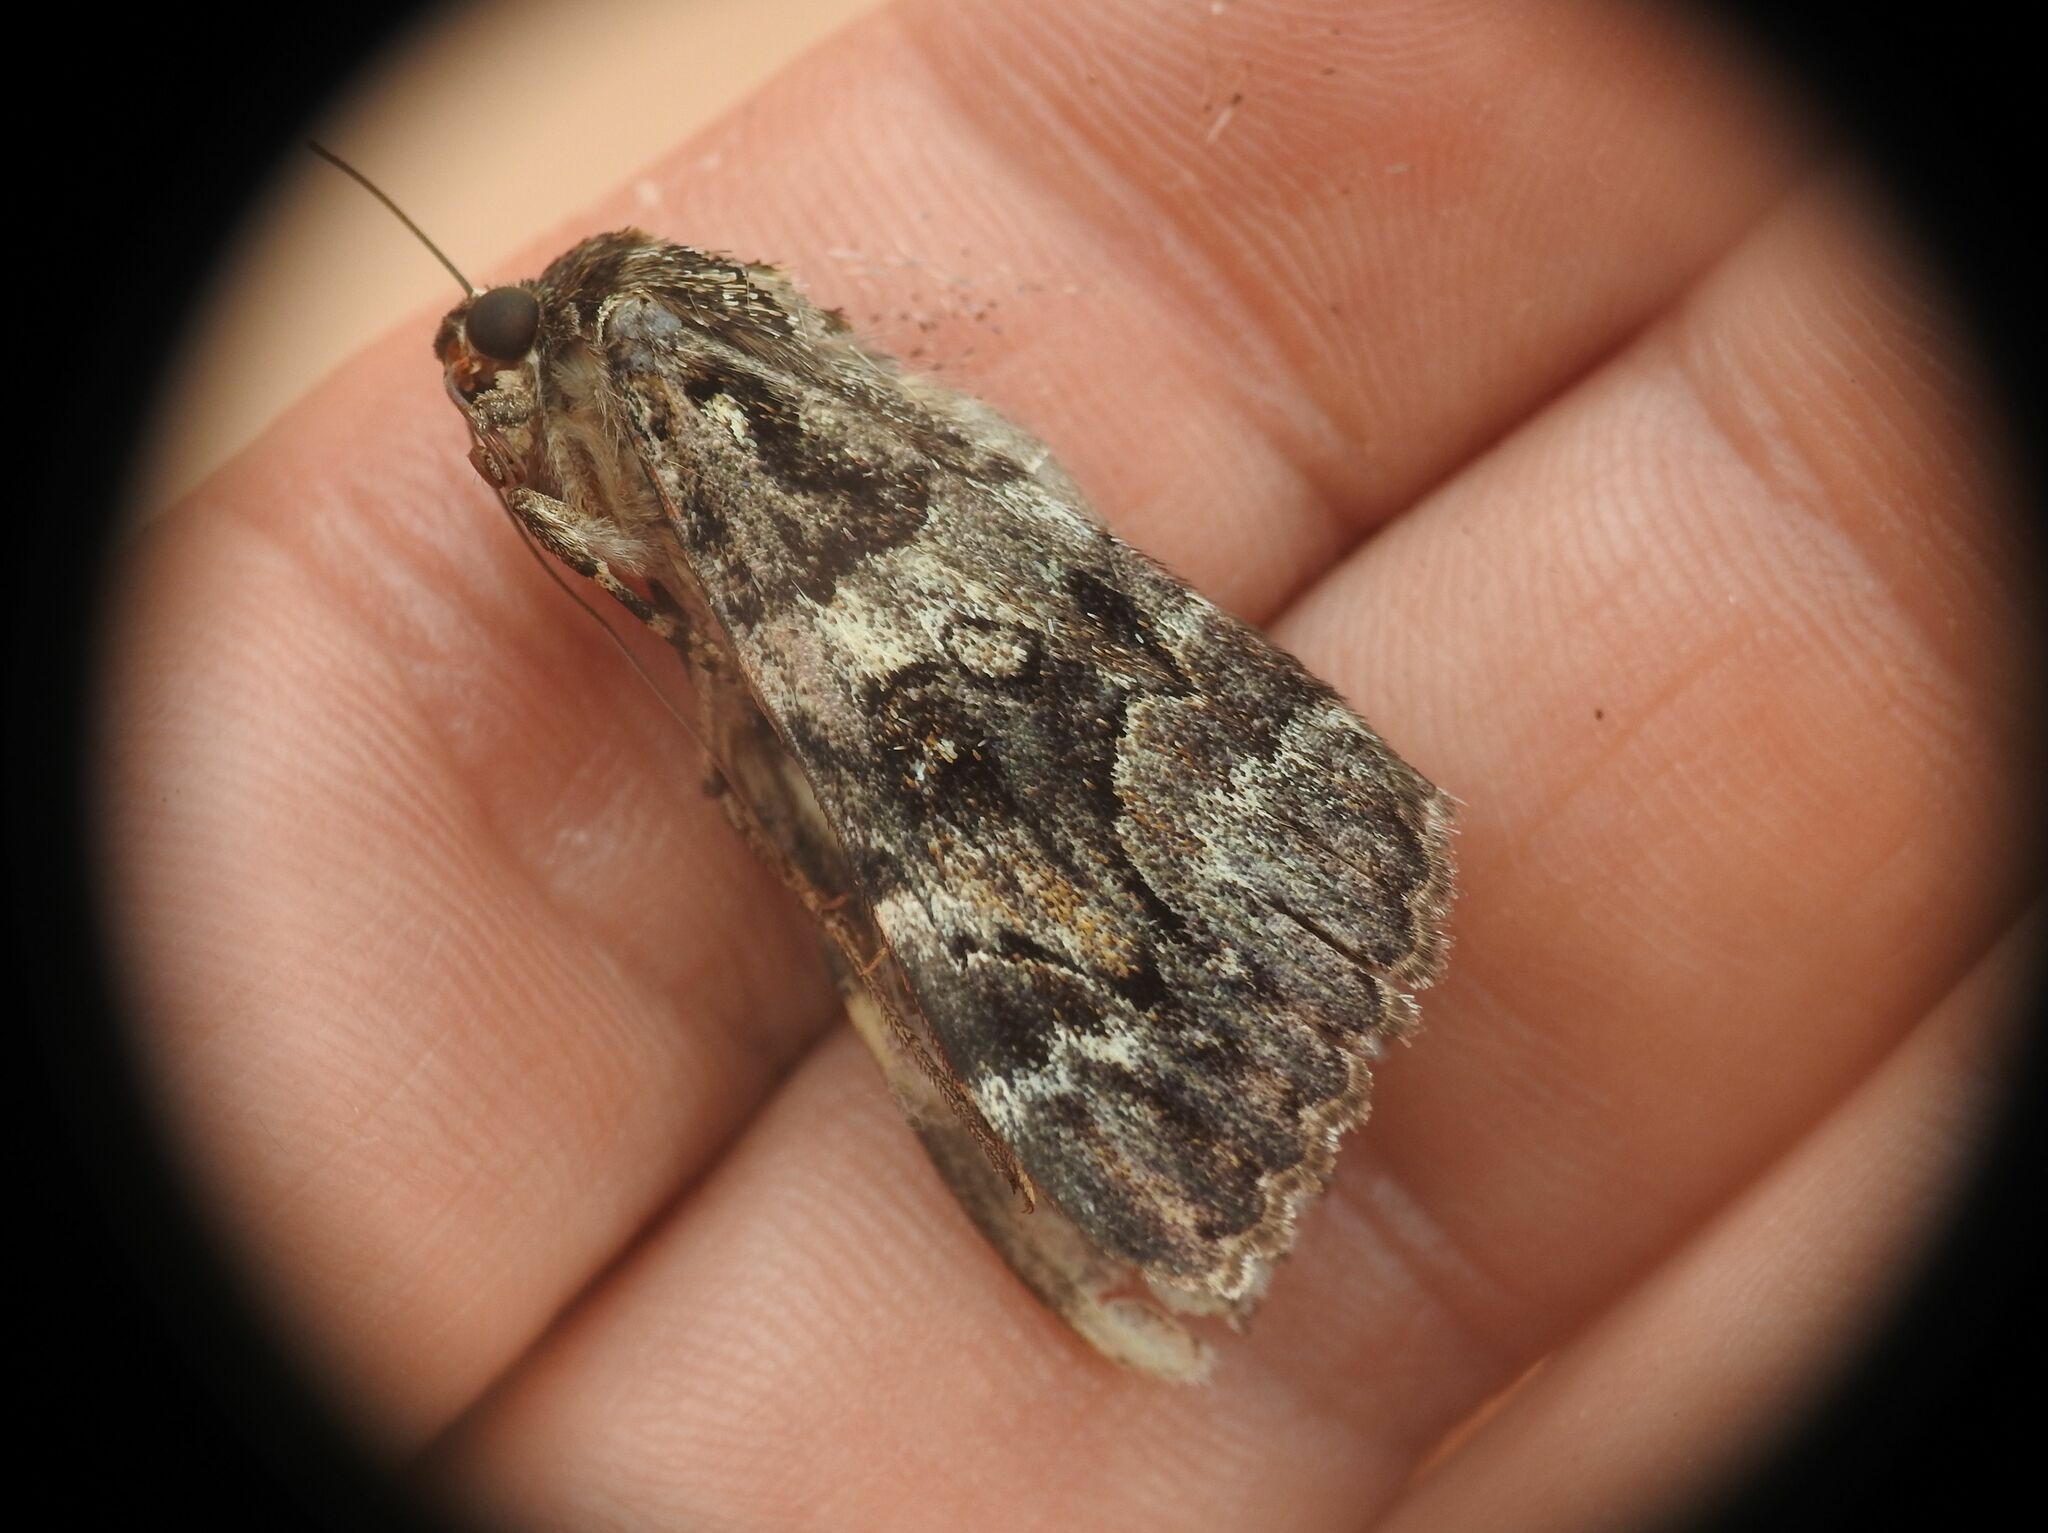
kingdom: Animalia
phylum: Arthropoda
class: Insecta
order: Lepidoptera
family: Erebidae
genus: Catocala
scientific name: Catocala coniuncta
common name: Minsmere crimson underwing
